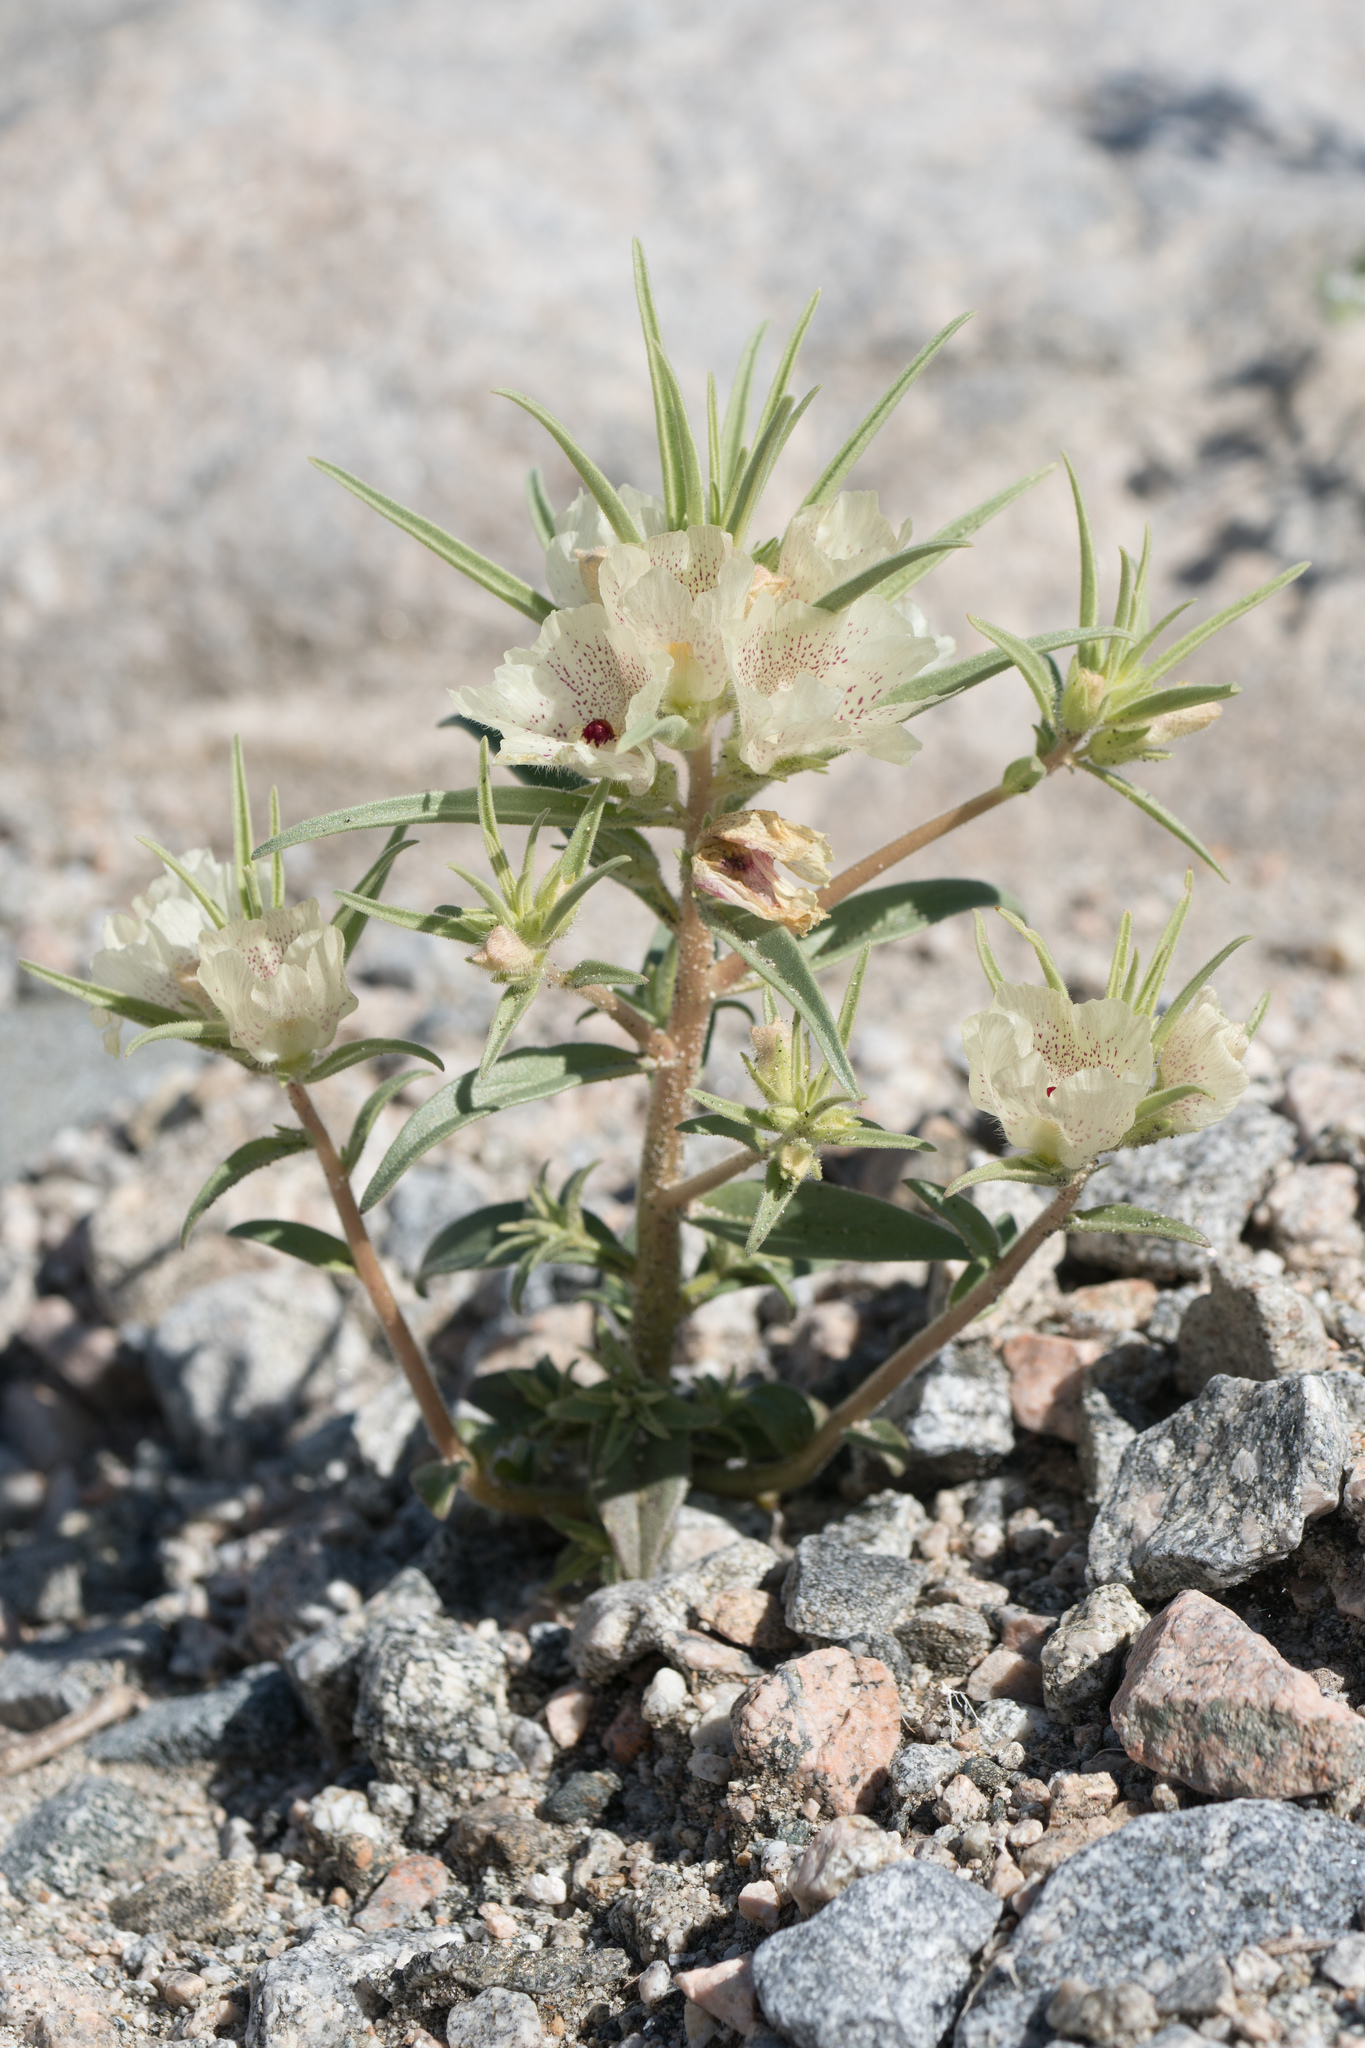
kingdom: Plantae
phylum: Tracheophyta
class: Magnoliopsida
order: Lamiales
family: Plantaginaceae
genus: Mohavea
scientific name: Mohavea confertiflora
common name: Ghost flower
